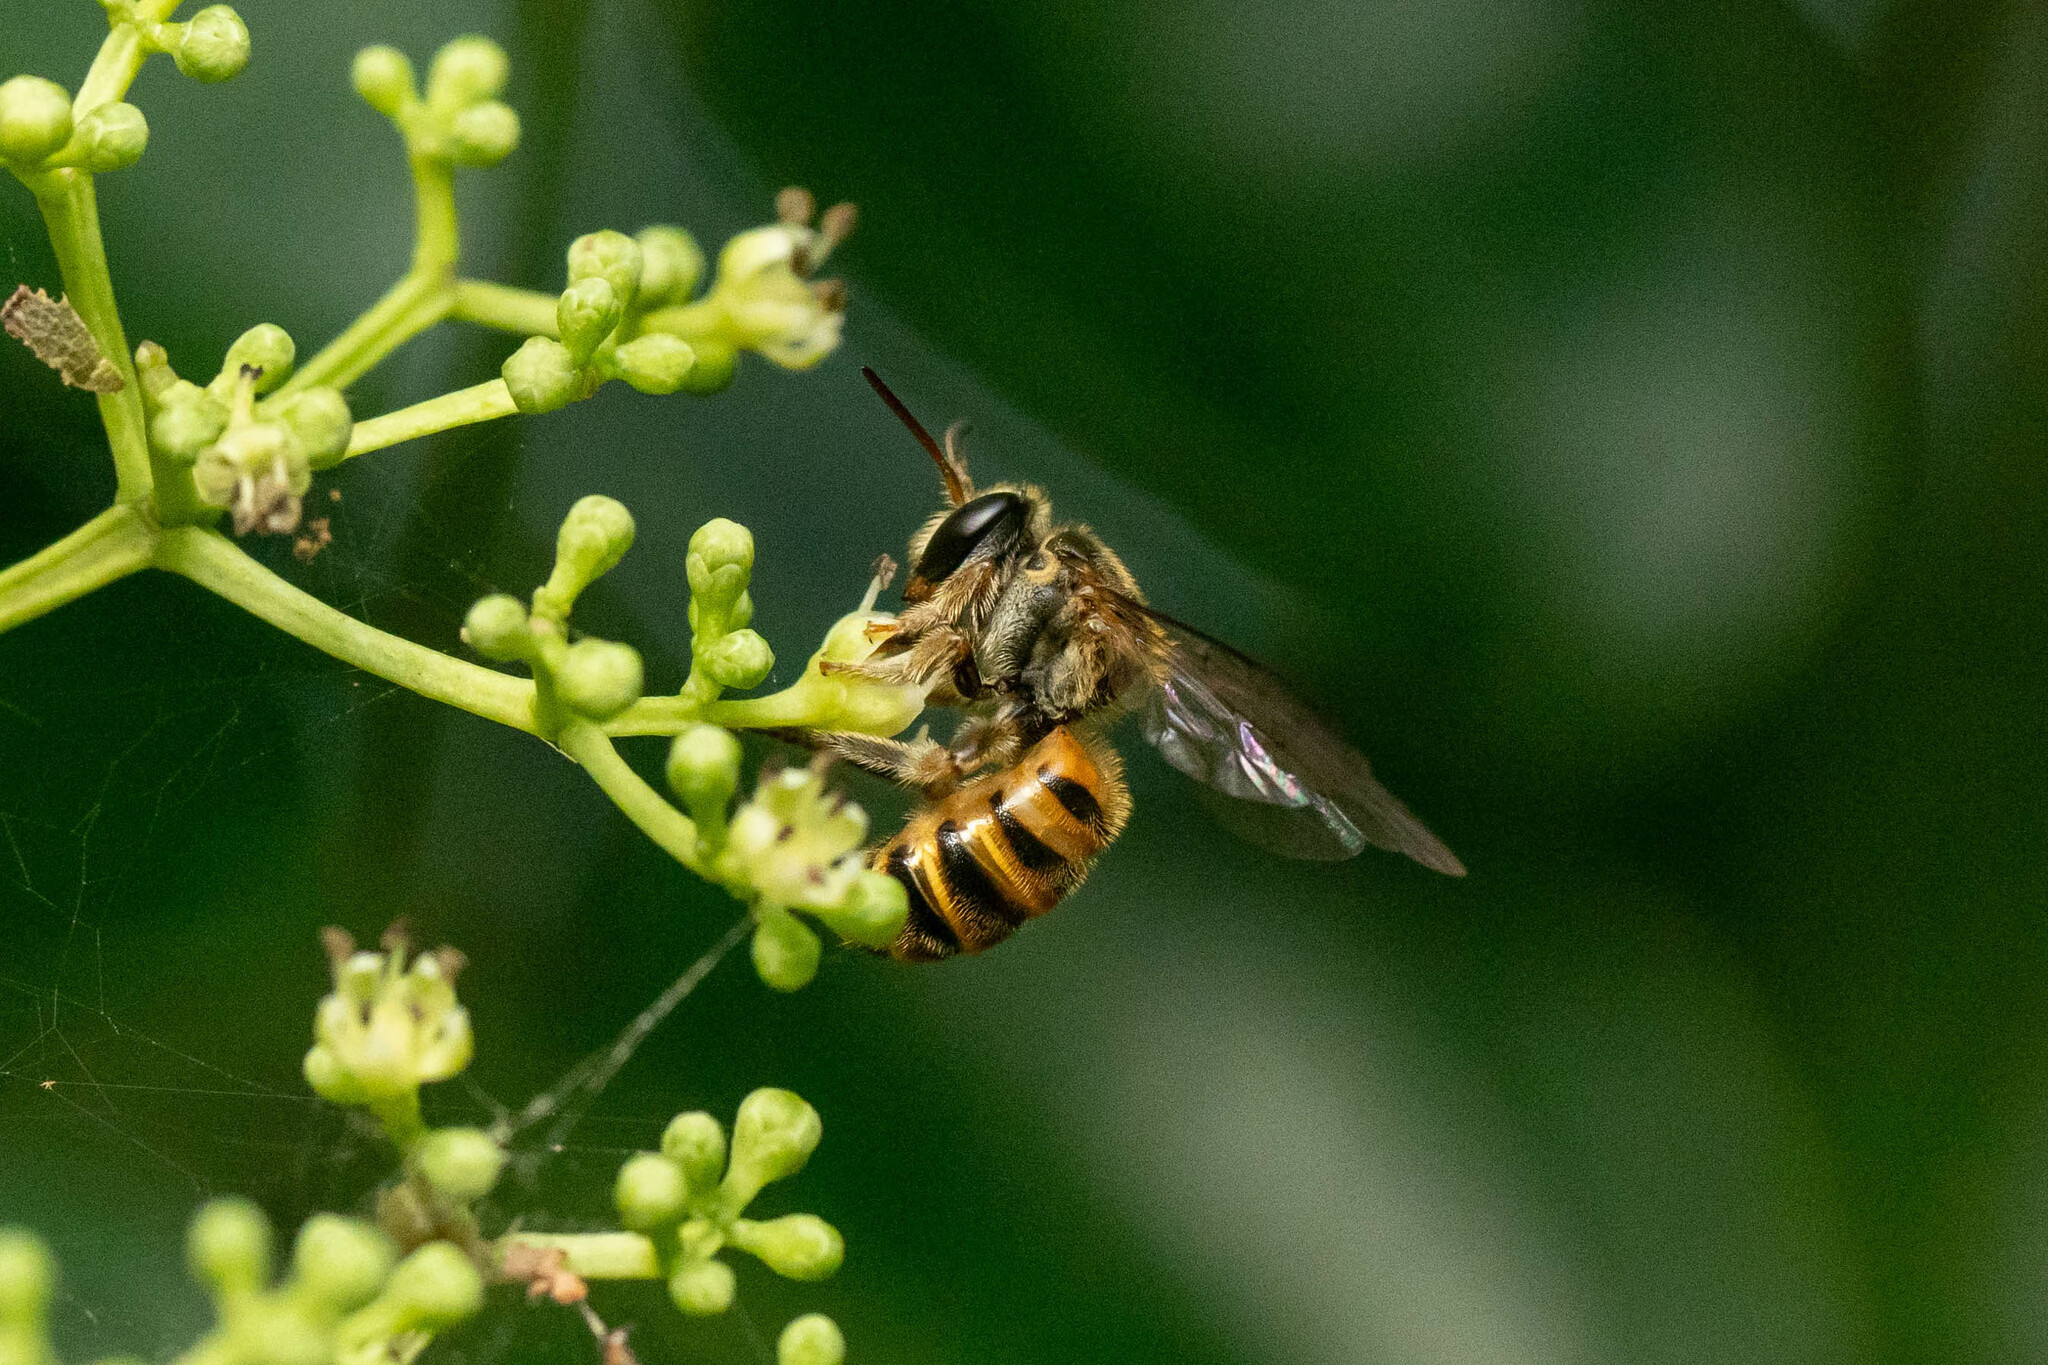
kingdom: Animalia
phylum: Arthropoda
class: Insecta
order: Hymenoptera
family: Halictidae
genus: Nomia
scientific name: Nomia penangensis
